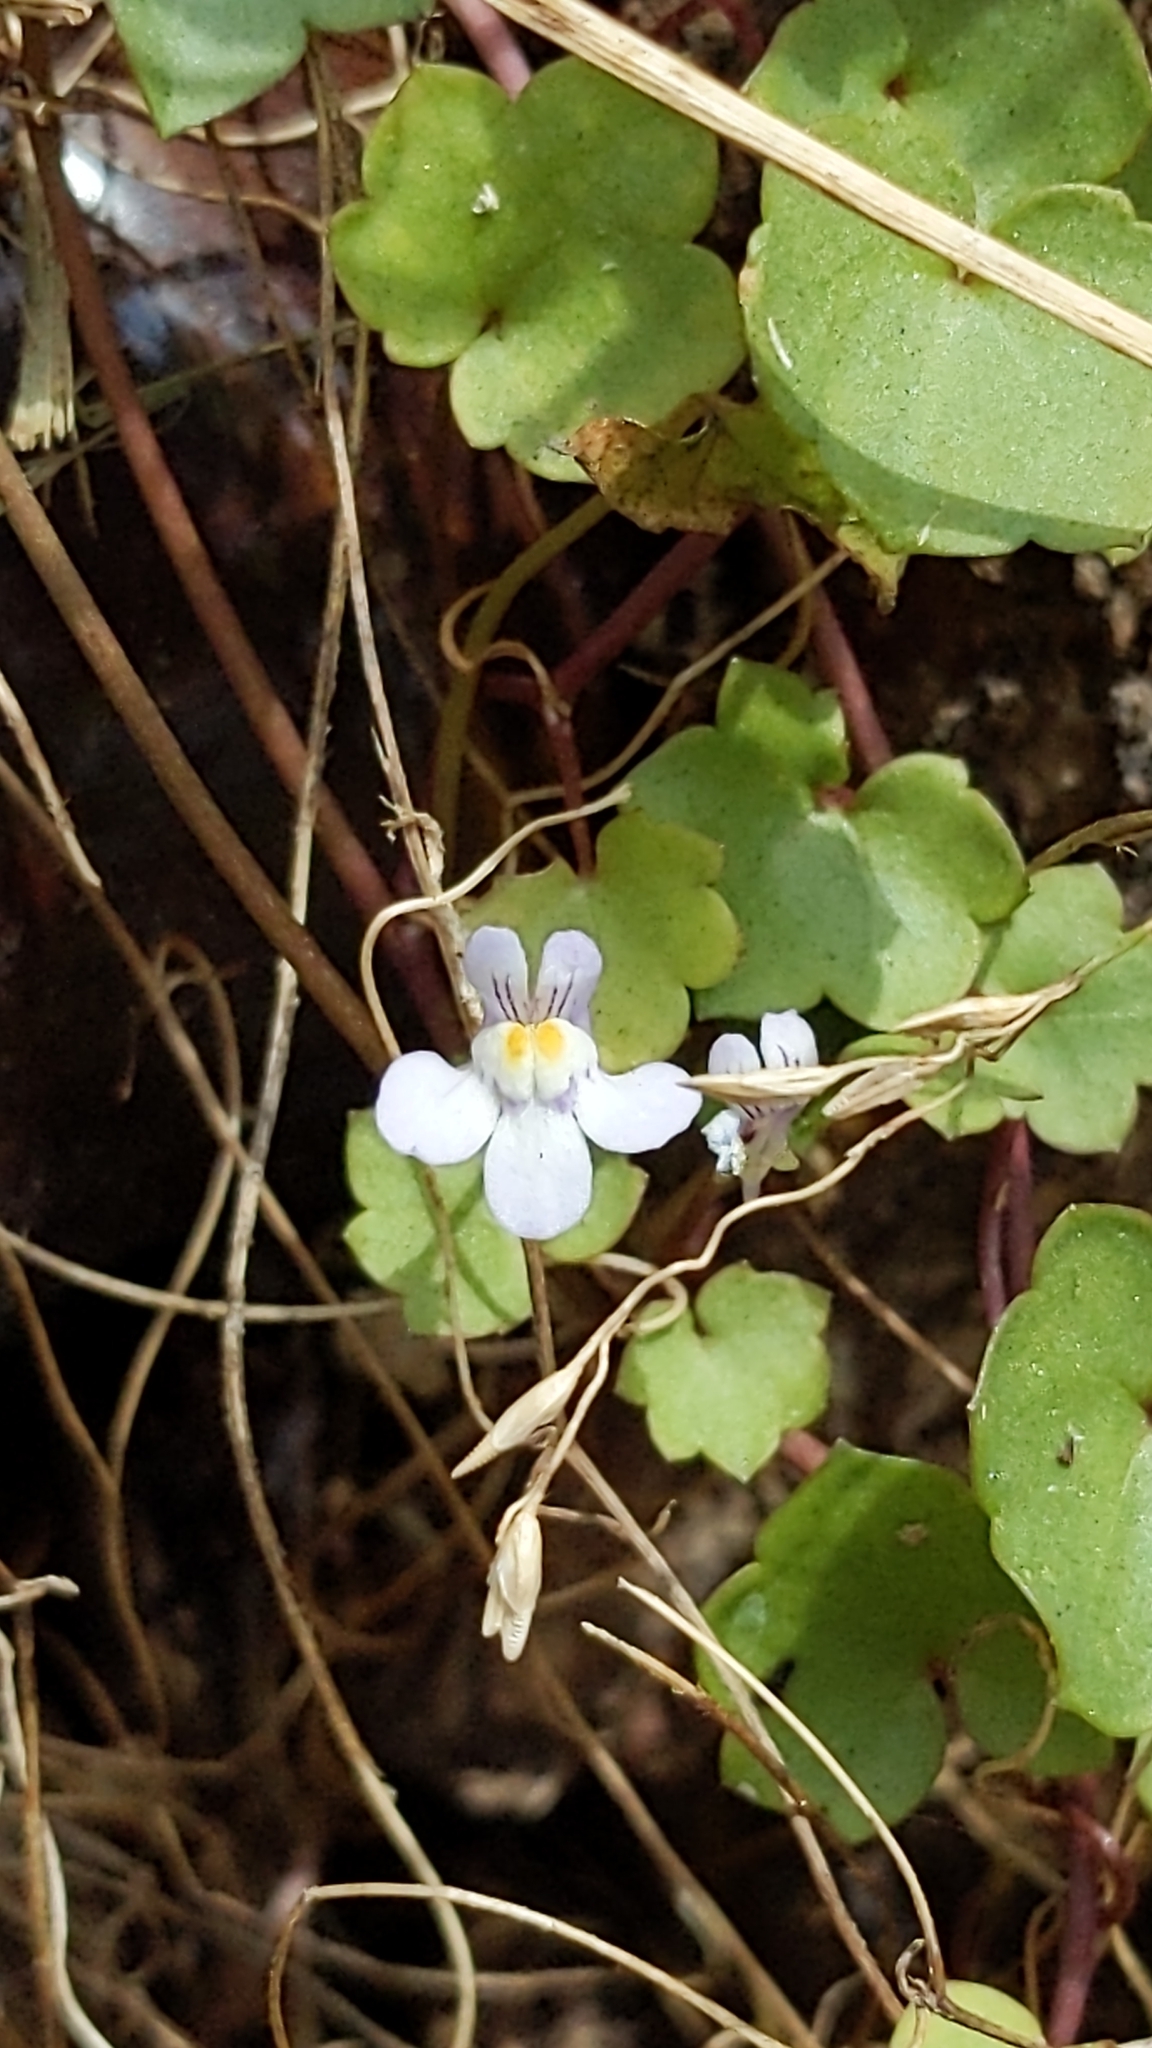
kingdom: Plantae
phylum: Tracheophyta
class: Magnoliopsida
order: Lamiales
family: Plantaginaceae
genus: Cymbalaria
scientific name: Cymbalaria muralis
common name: Ivy-leaved toadflax
